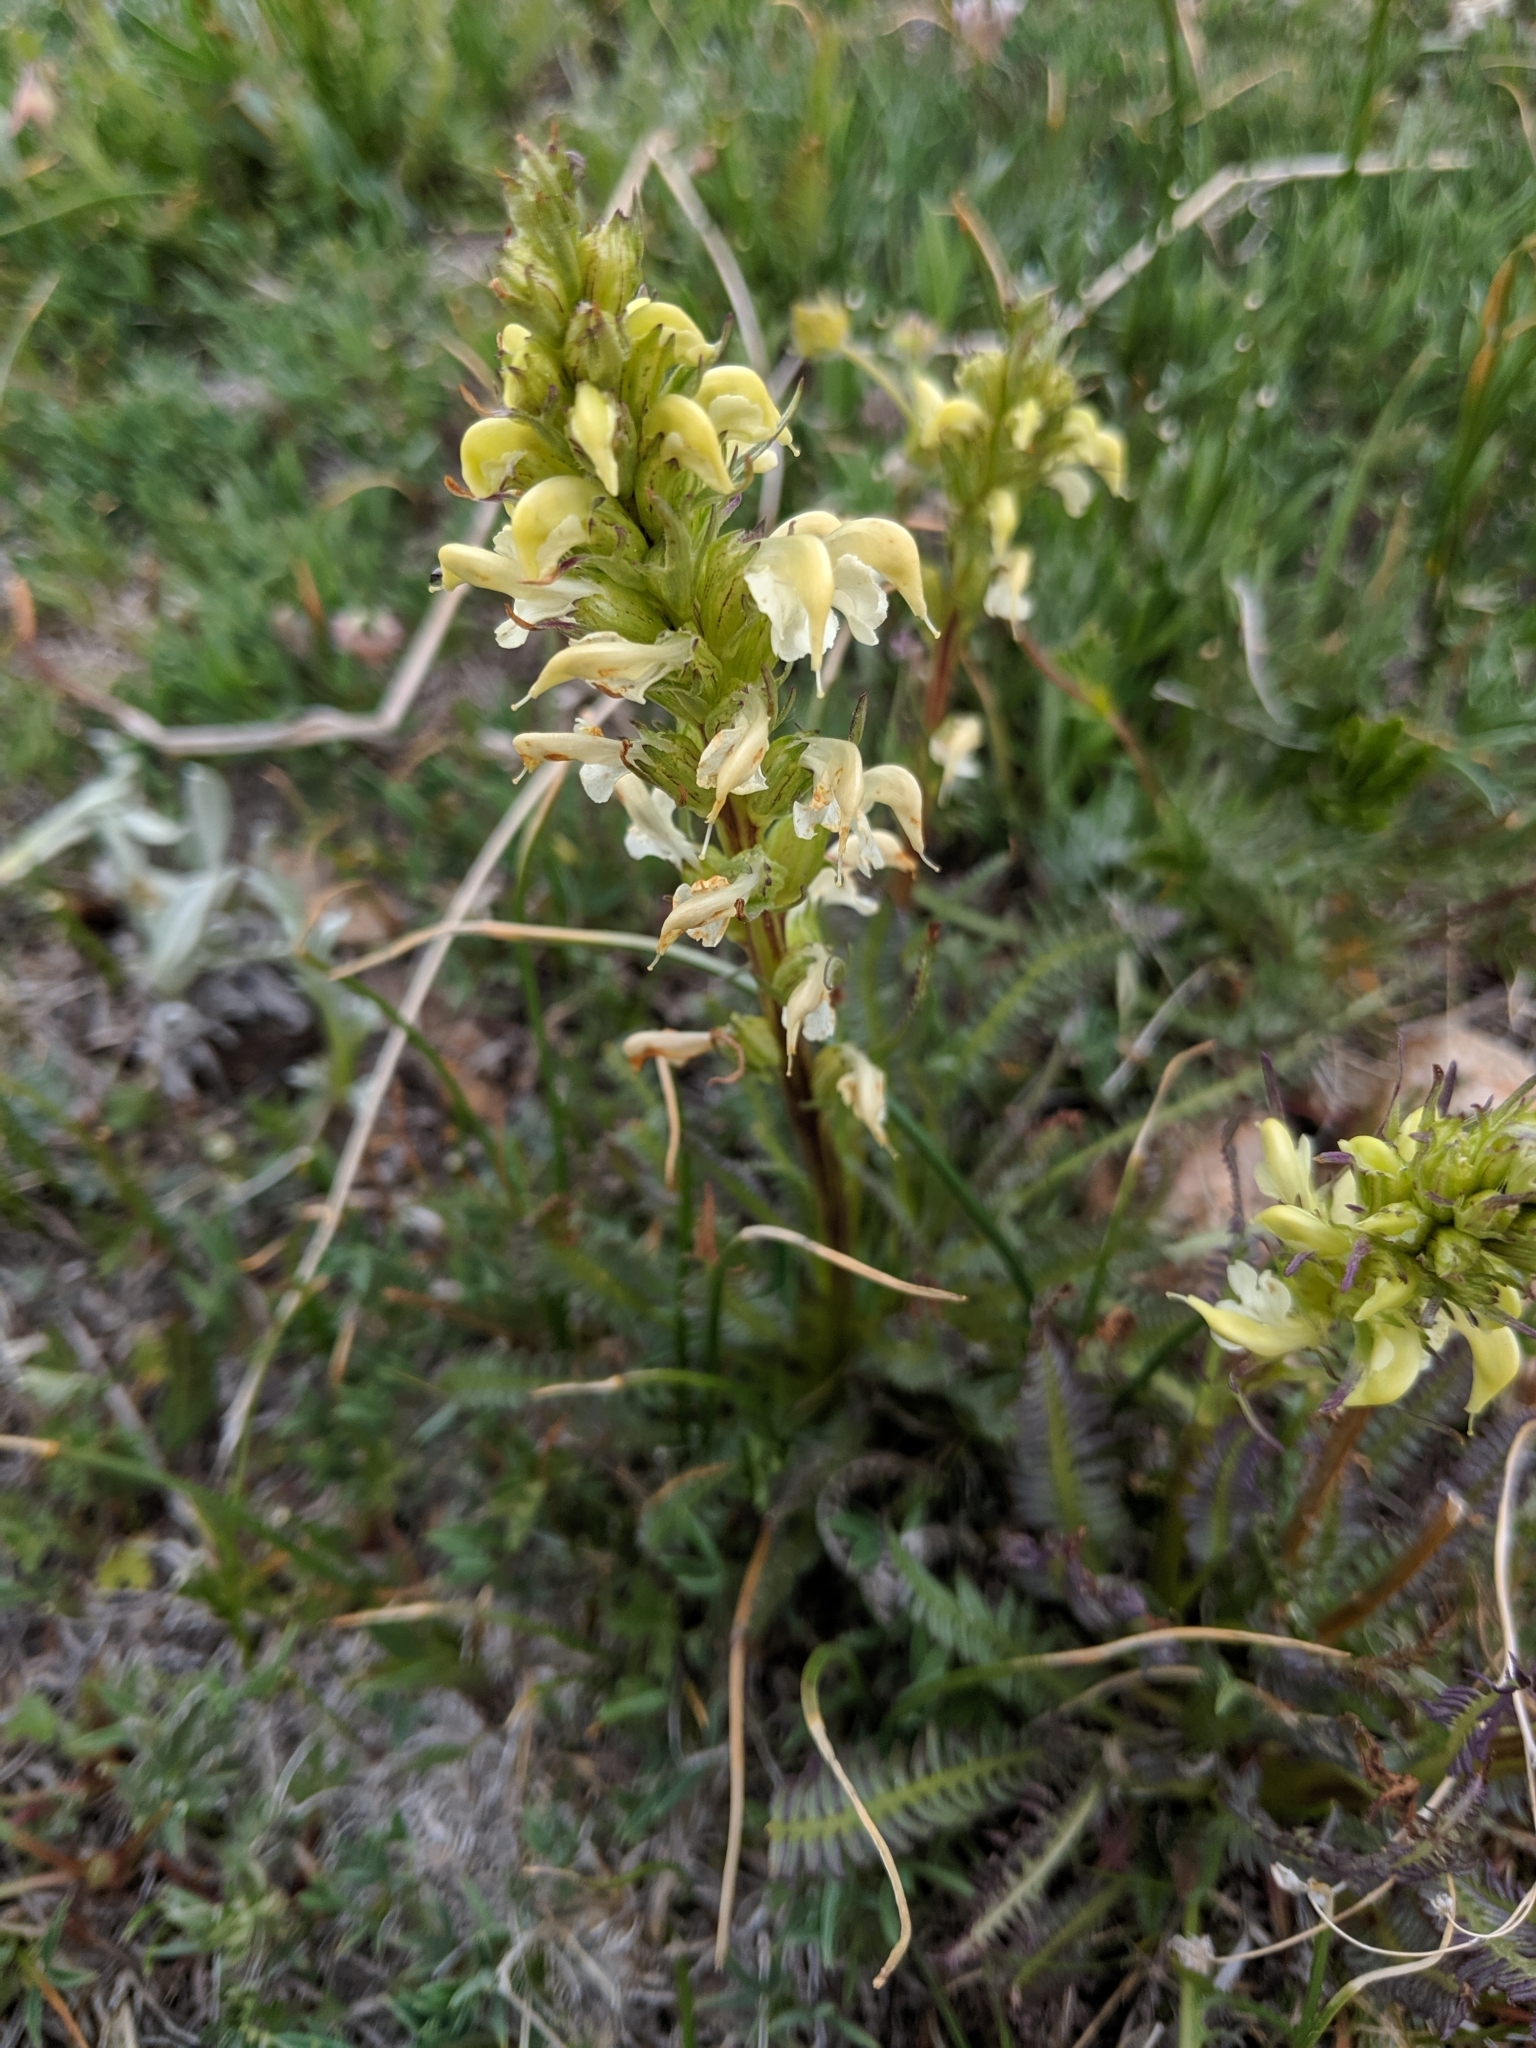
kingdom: Plantae
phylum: Tracheophyta
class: Magnoliopsida
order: Lamiales
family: Orobanchaceae
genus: Pedicularis
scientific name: Pedicularis parryi
